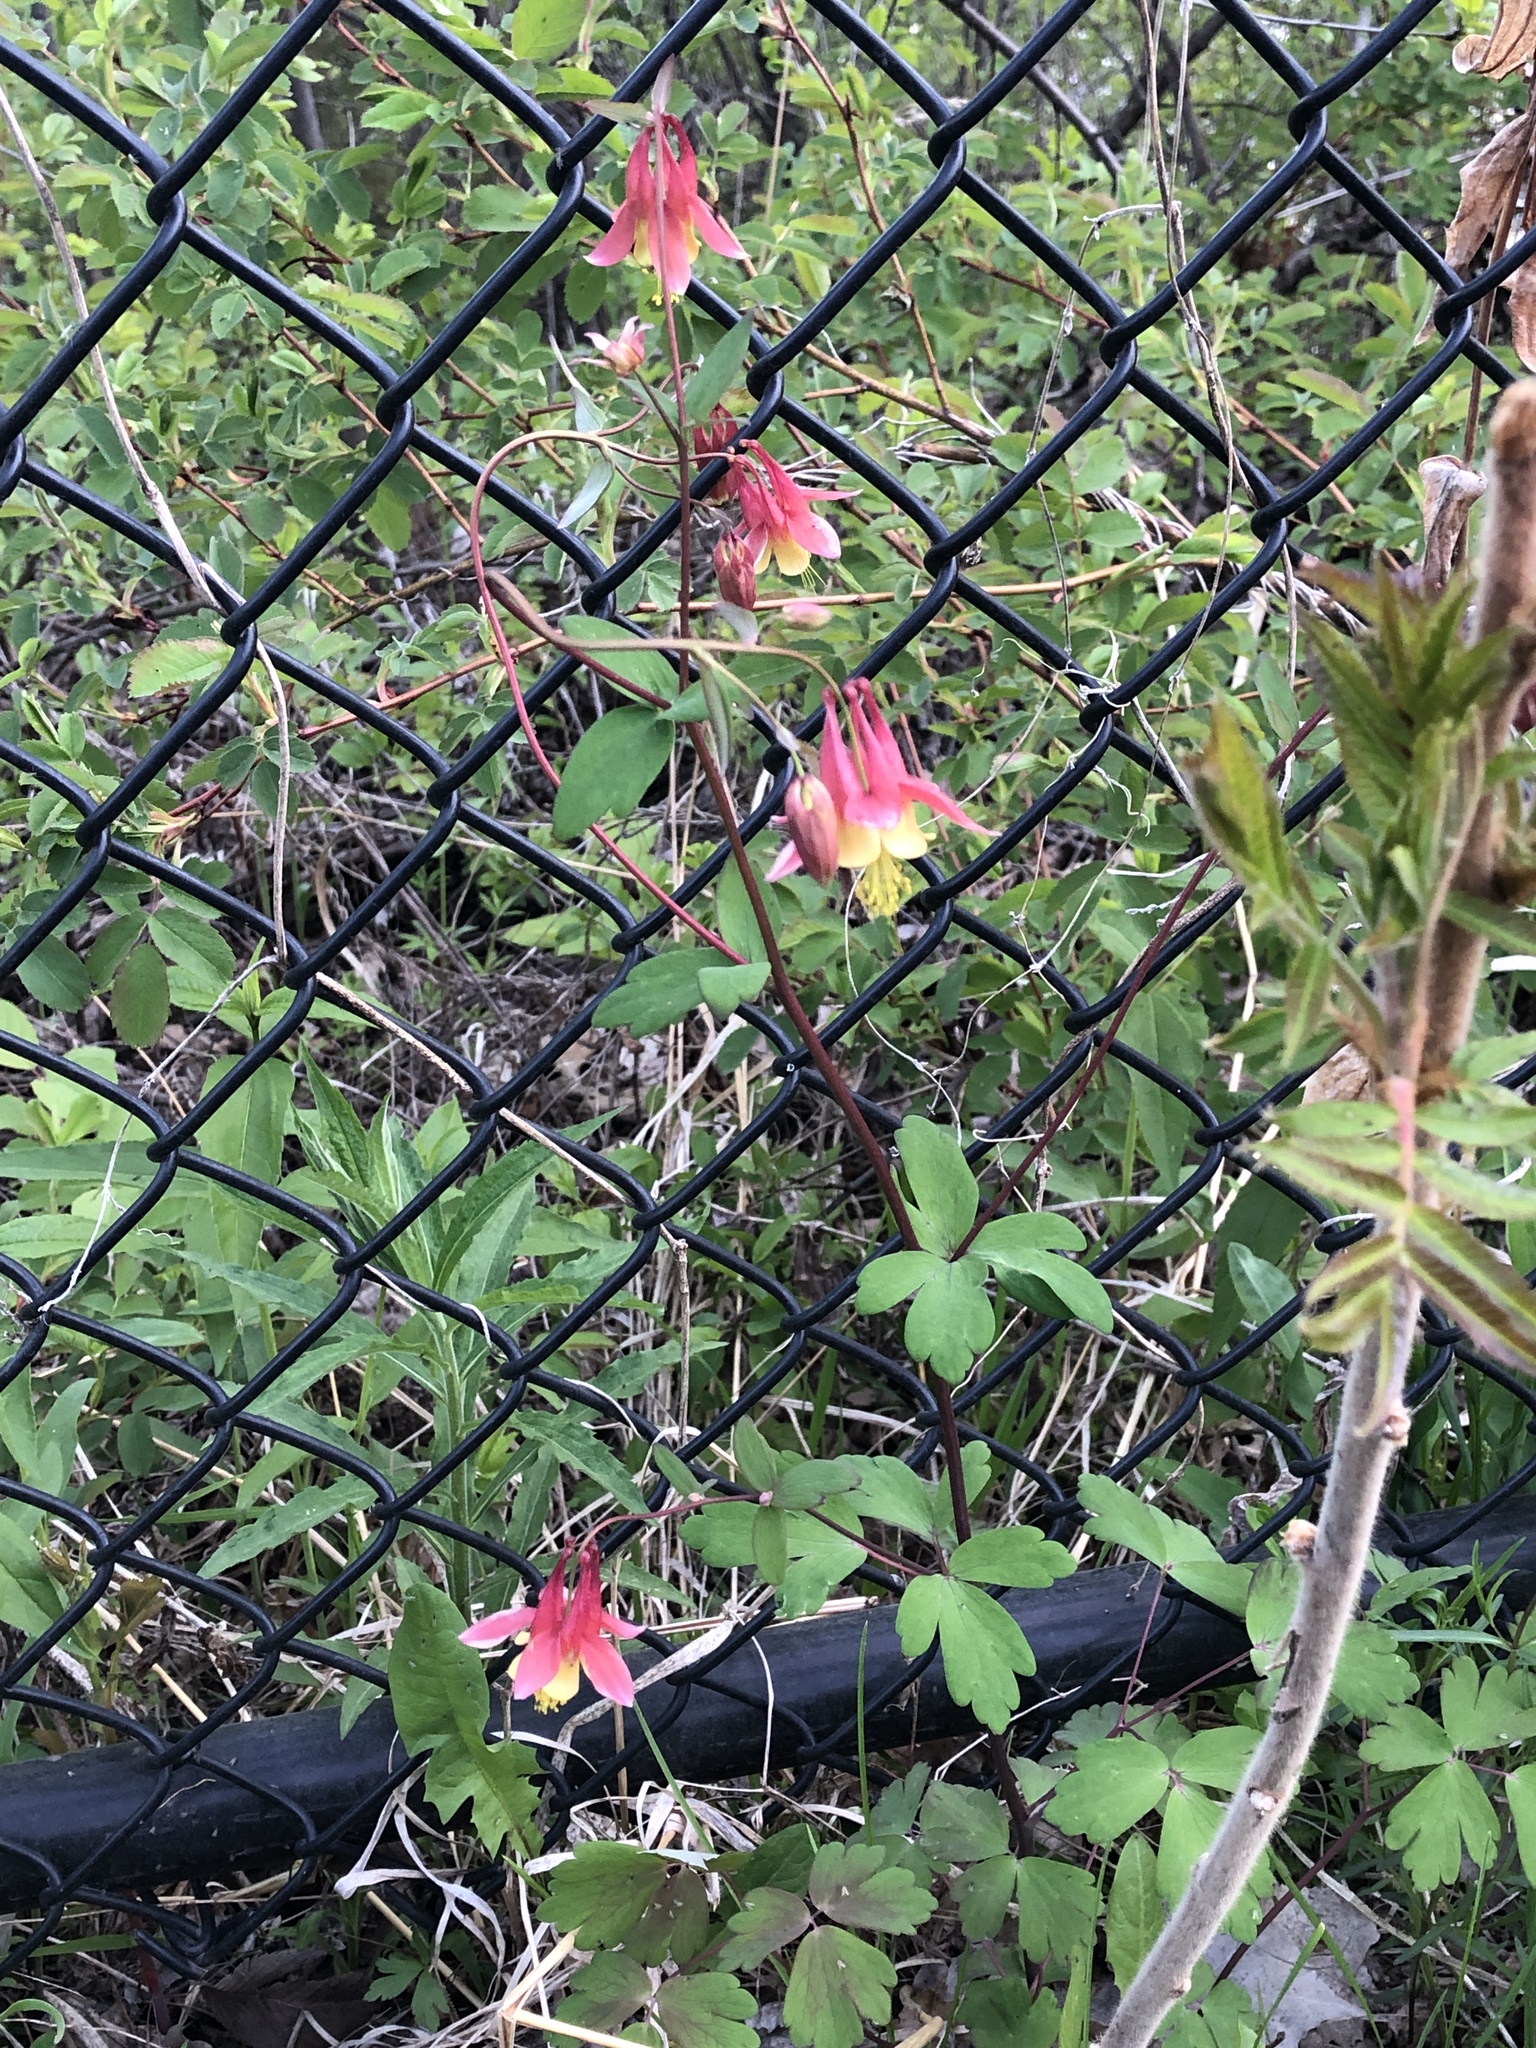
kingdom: Plantae
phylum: Tracheophyta
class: Magnoliopsida
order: Ranunculales
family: Ranunculaceae
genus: Aquilegia
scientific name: Aquilegia canadensis
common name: American columbine
